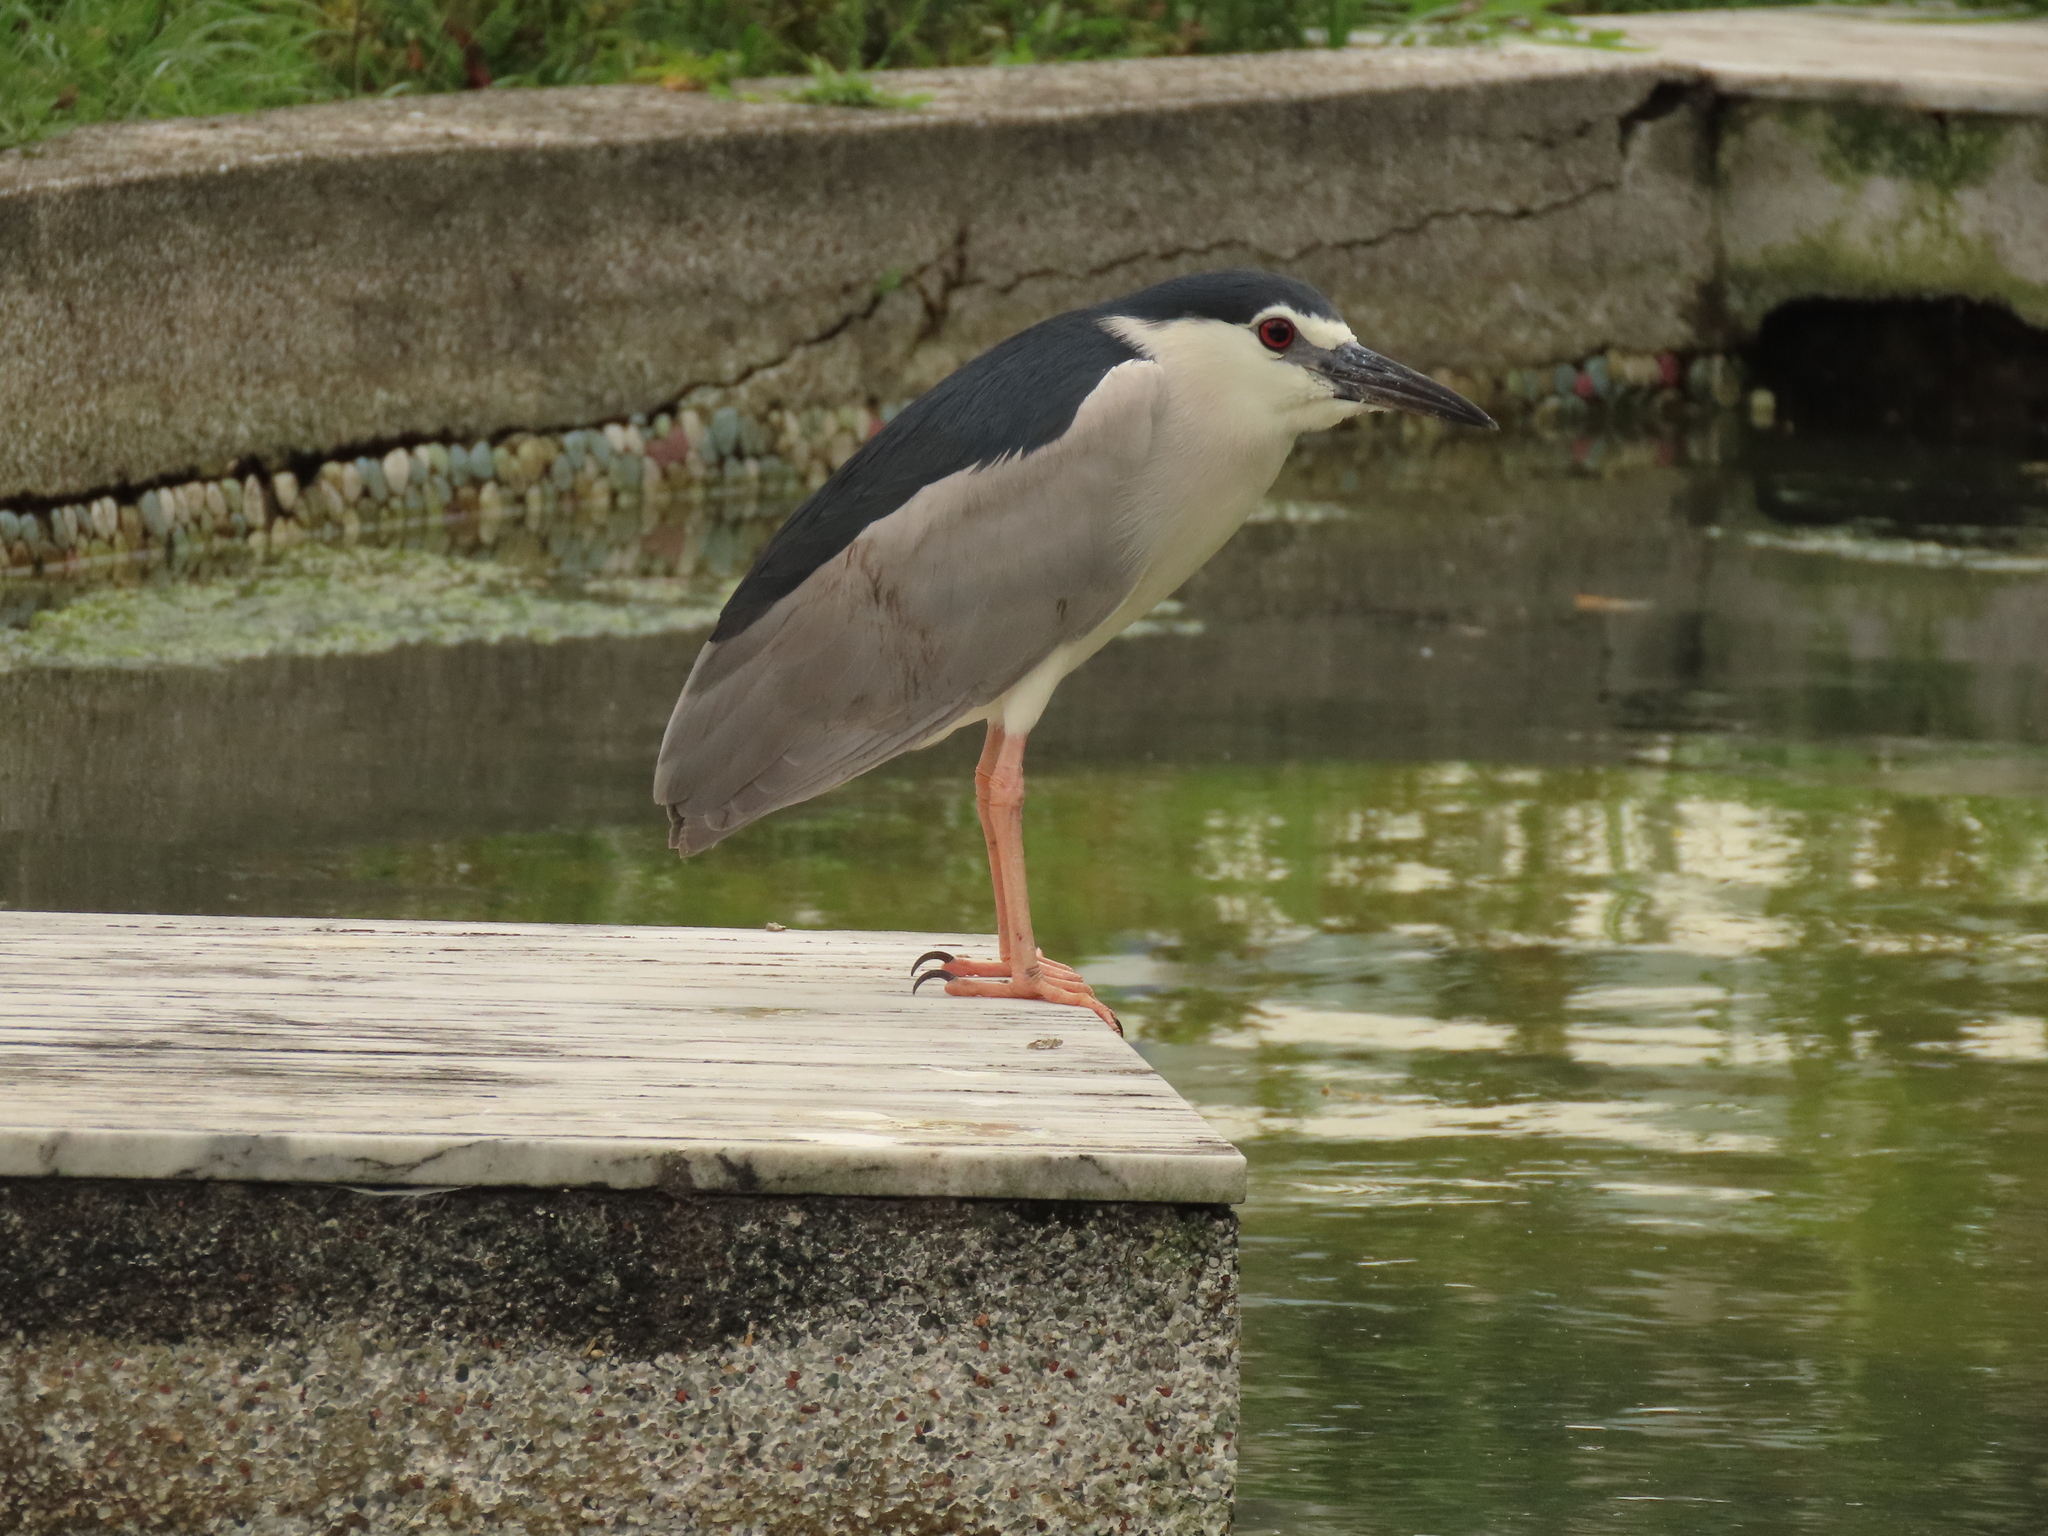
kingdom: Animalia
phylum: Chordata
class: Aves
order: Pelecaniformes
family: Ardeidae
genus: Nycticorax
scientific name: Nycticorax nycticorax
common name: Black-crowned night heron
